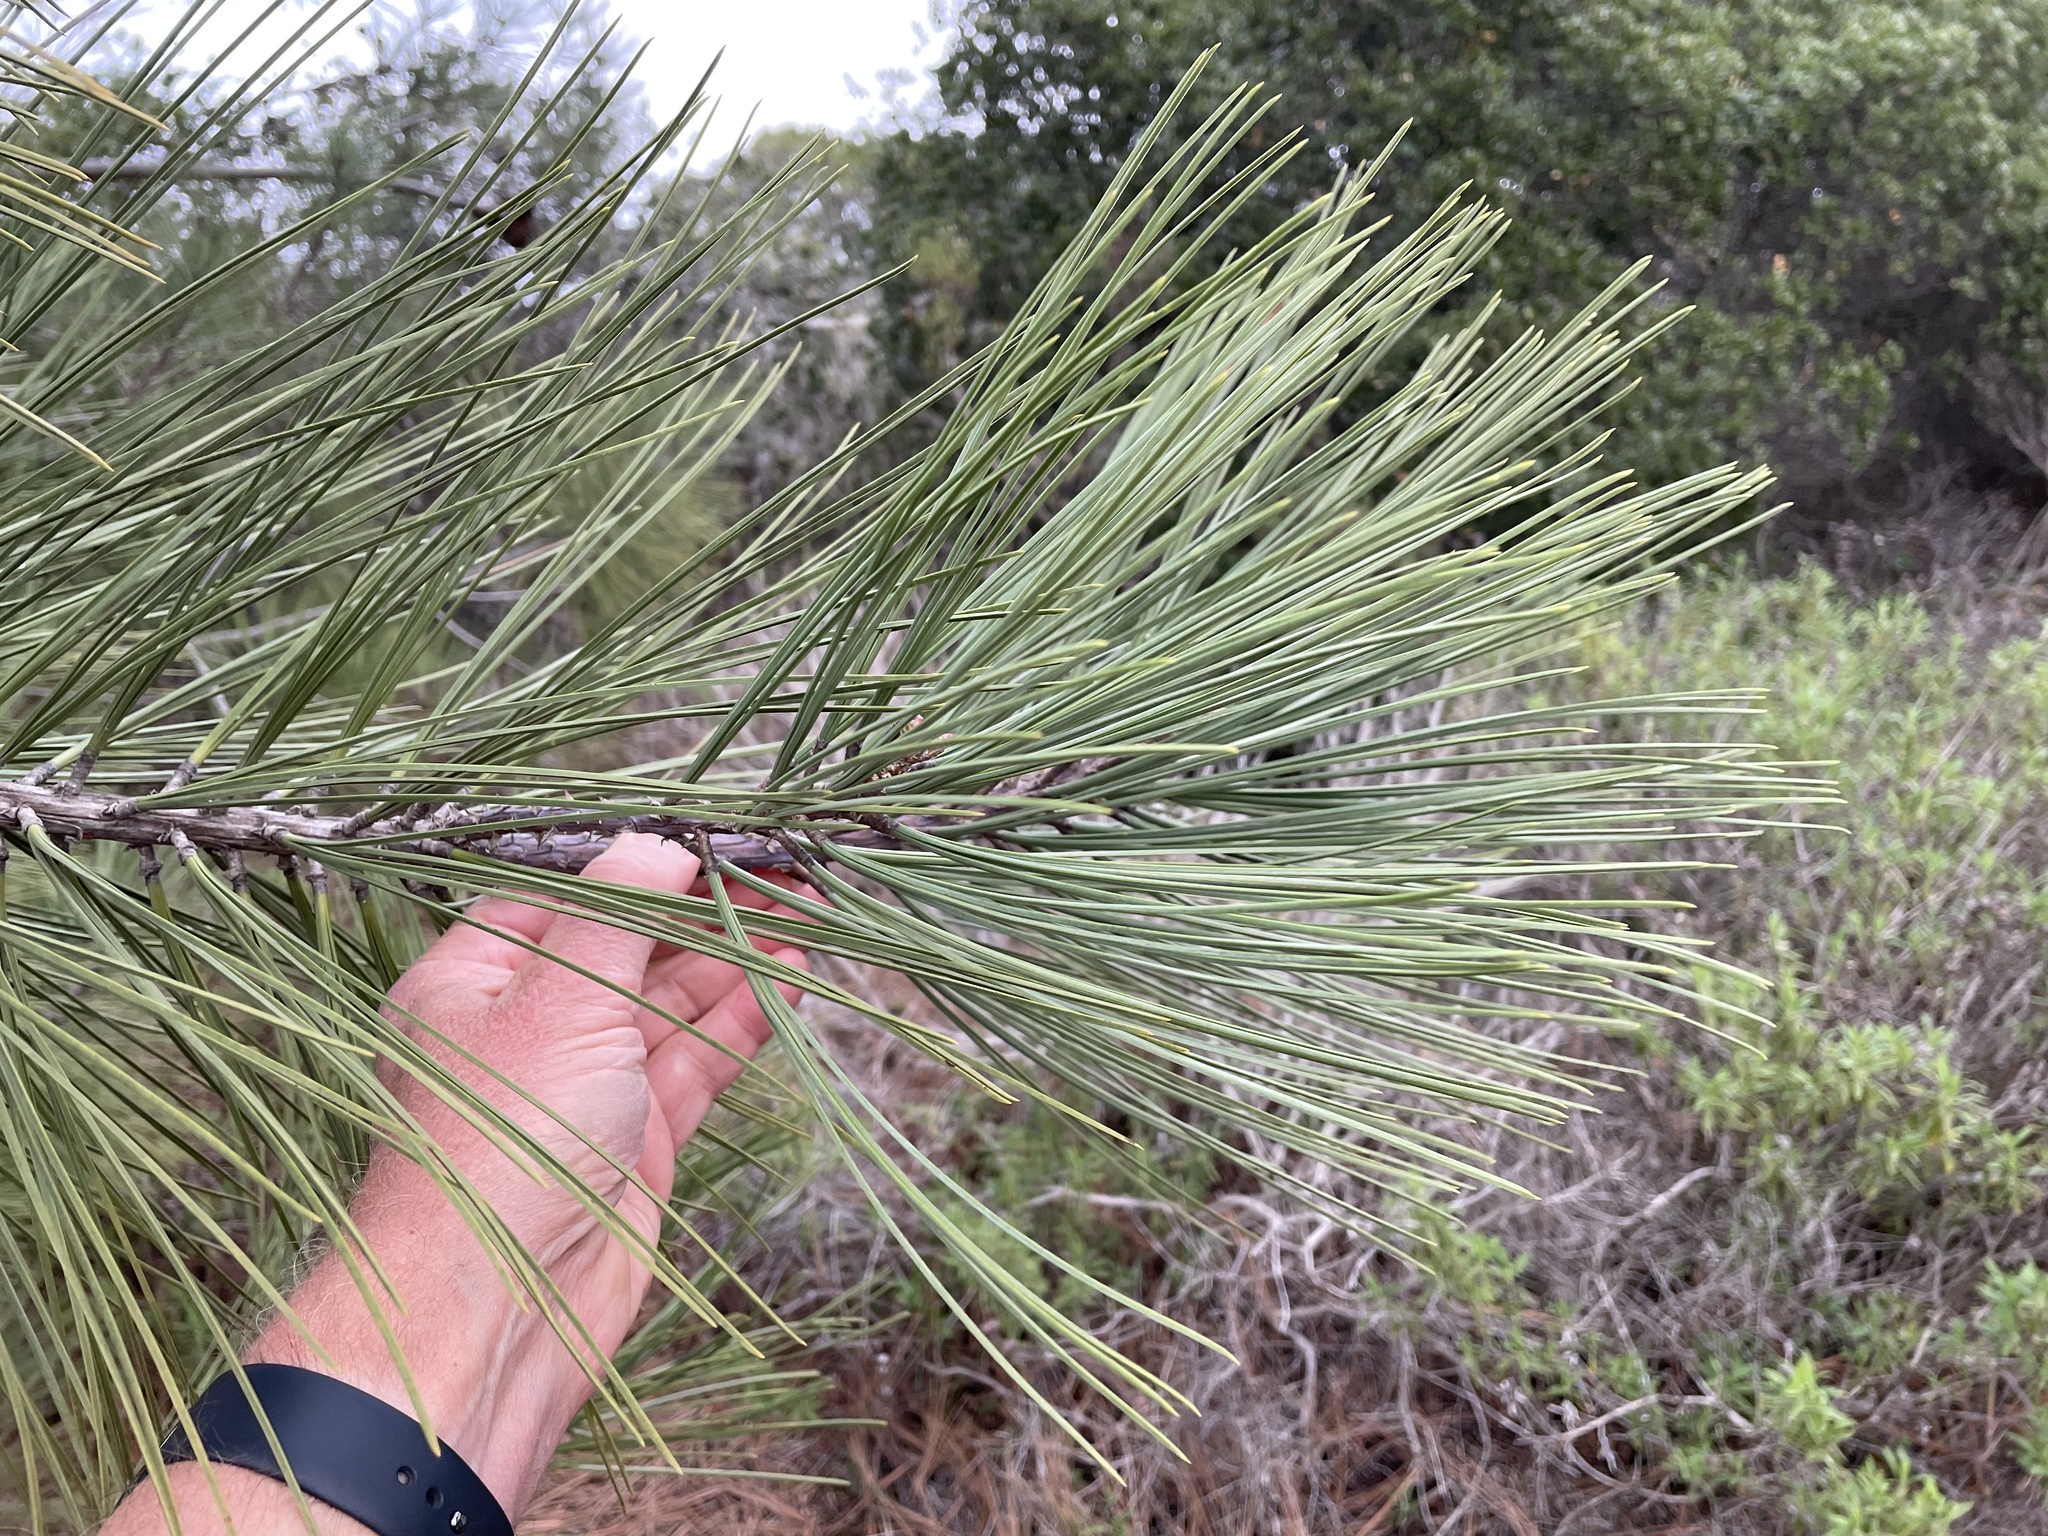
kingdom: Plantae
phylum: Tracheophyta
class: Pinopsida
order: Pinales
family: Pinaceae
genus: Pinus
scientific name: Pinus torreyana
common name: Torrey pine
